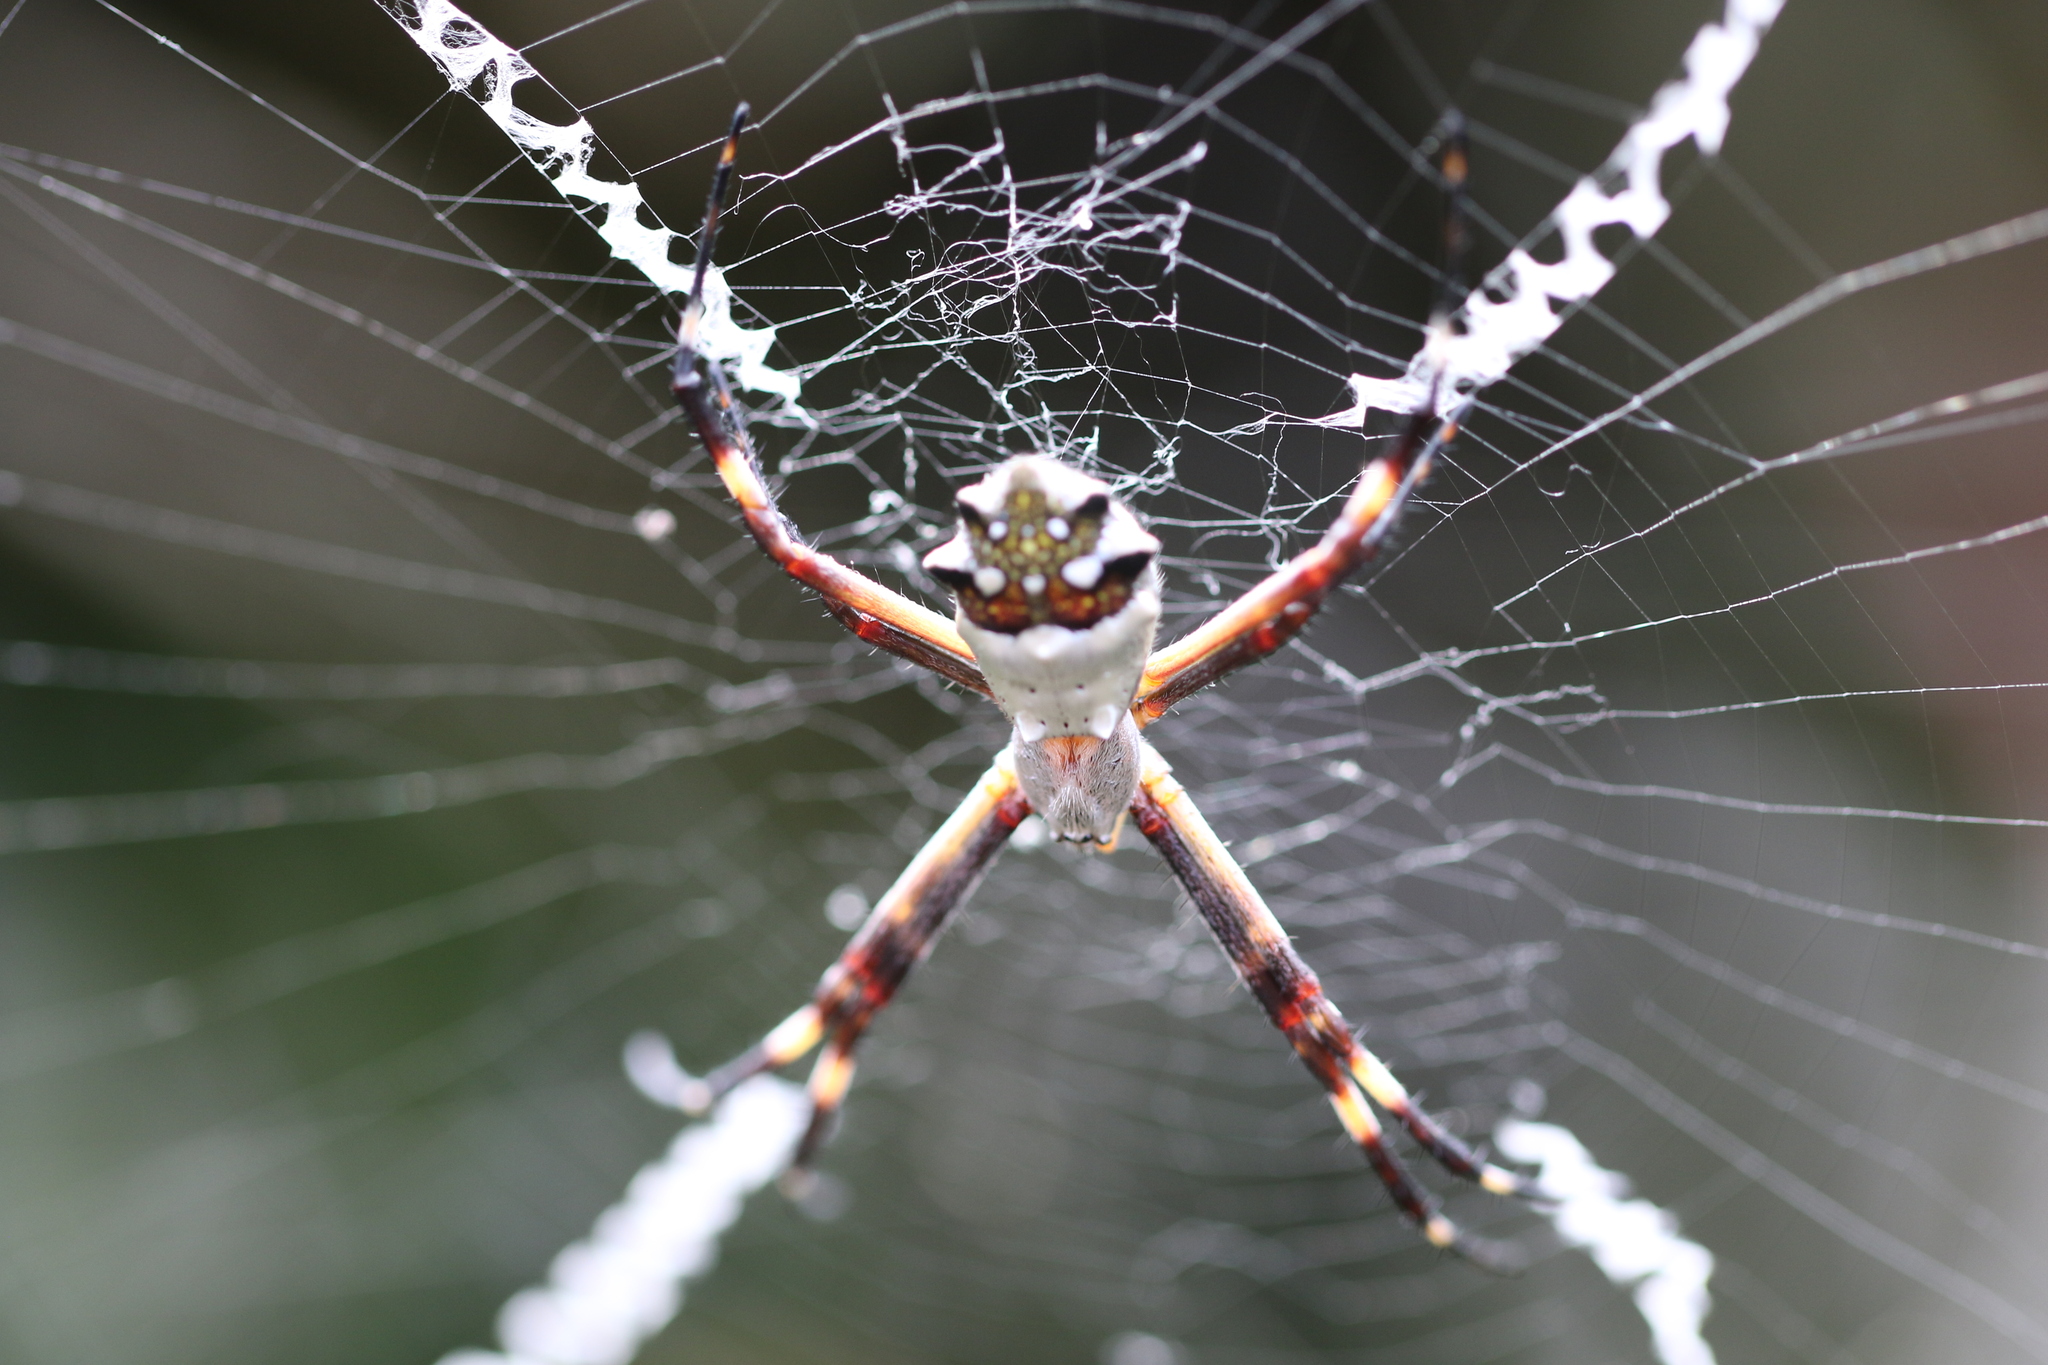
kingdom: Animalia
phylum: Arthropoda
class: Arachnida
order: Araneae
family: Araneidae
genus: Argiope
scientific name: Argiope argentata
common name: Orb weavers
